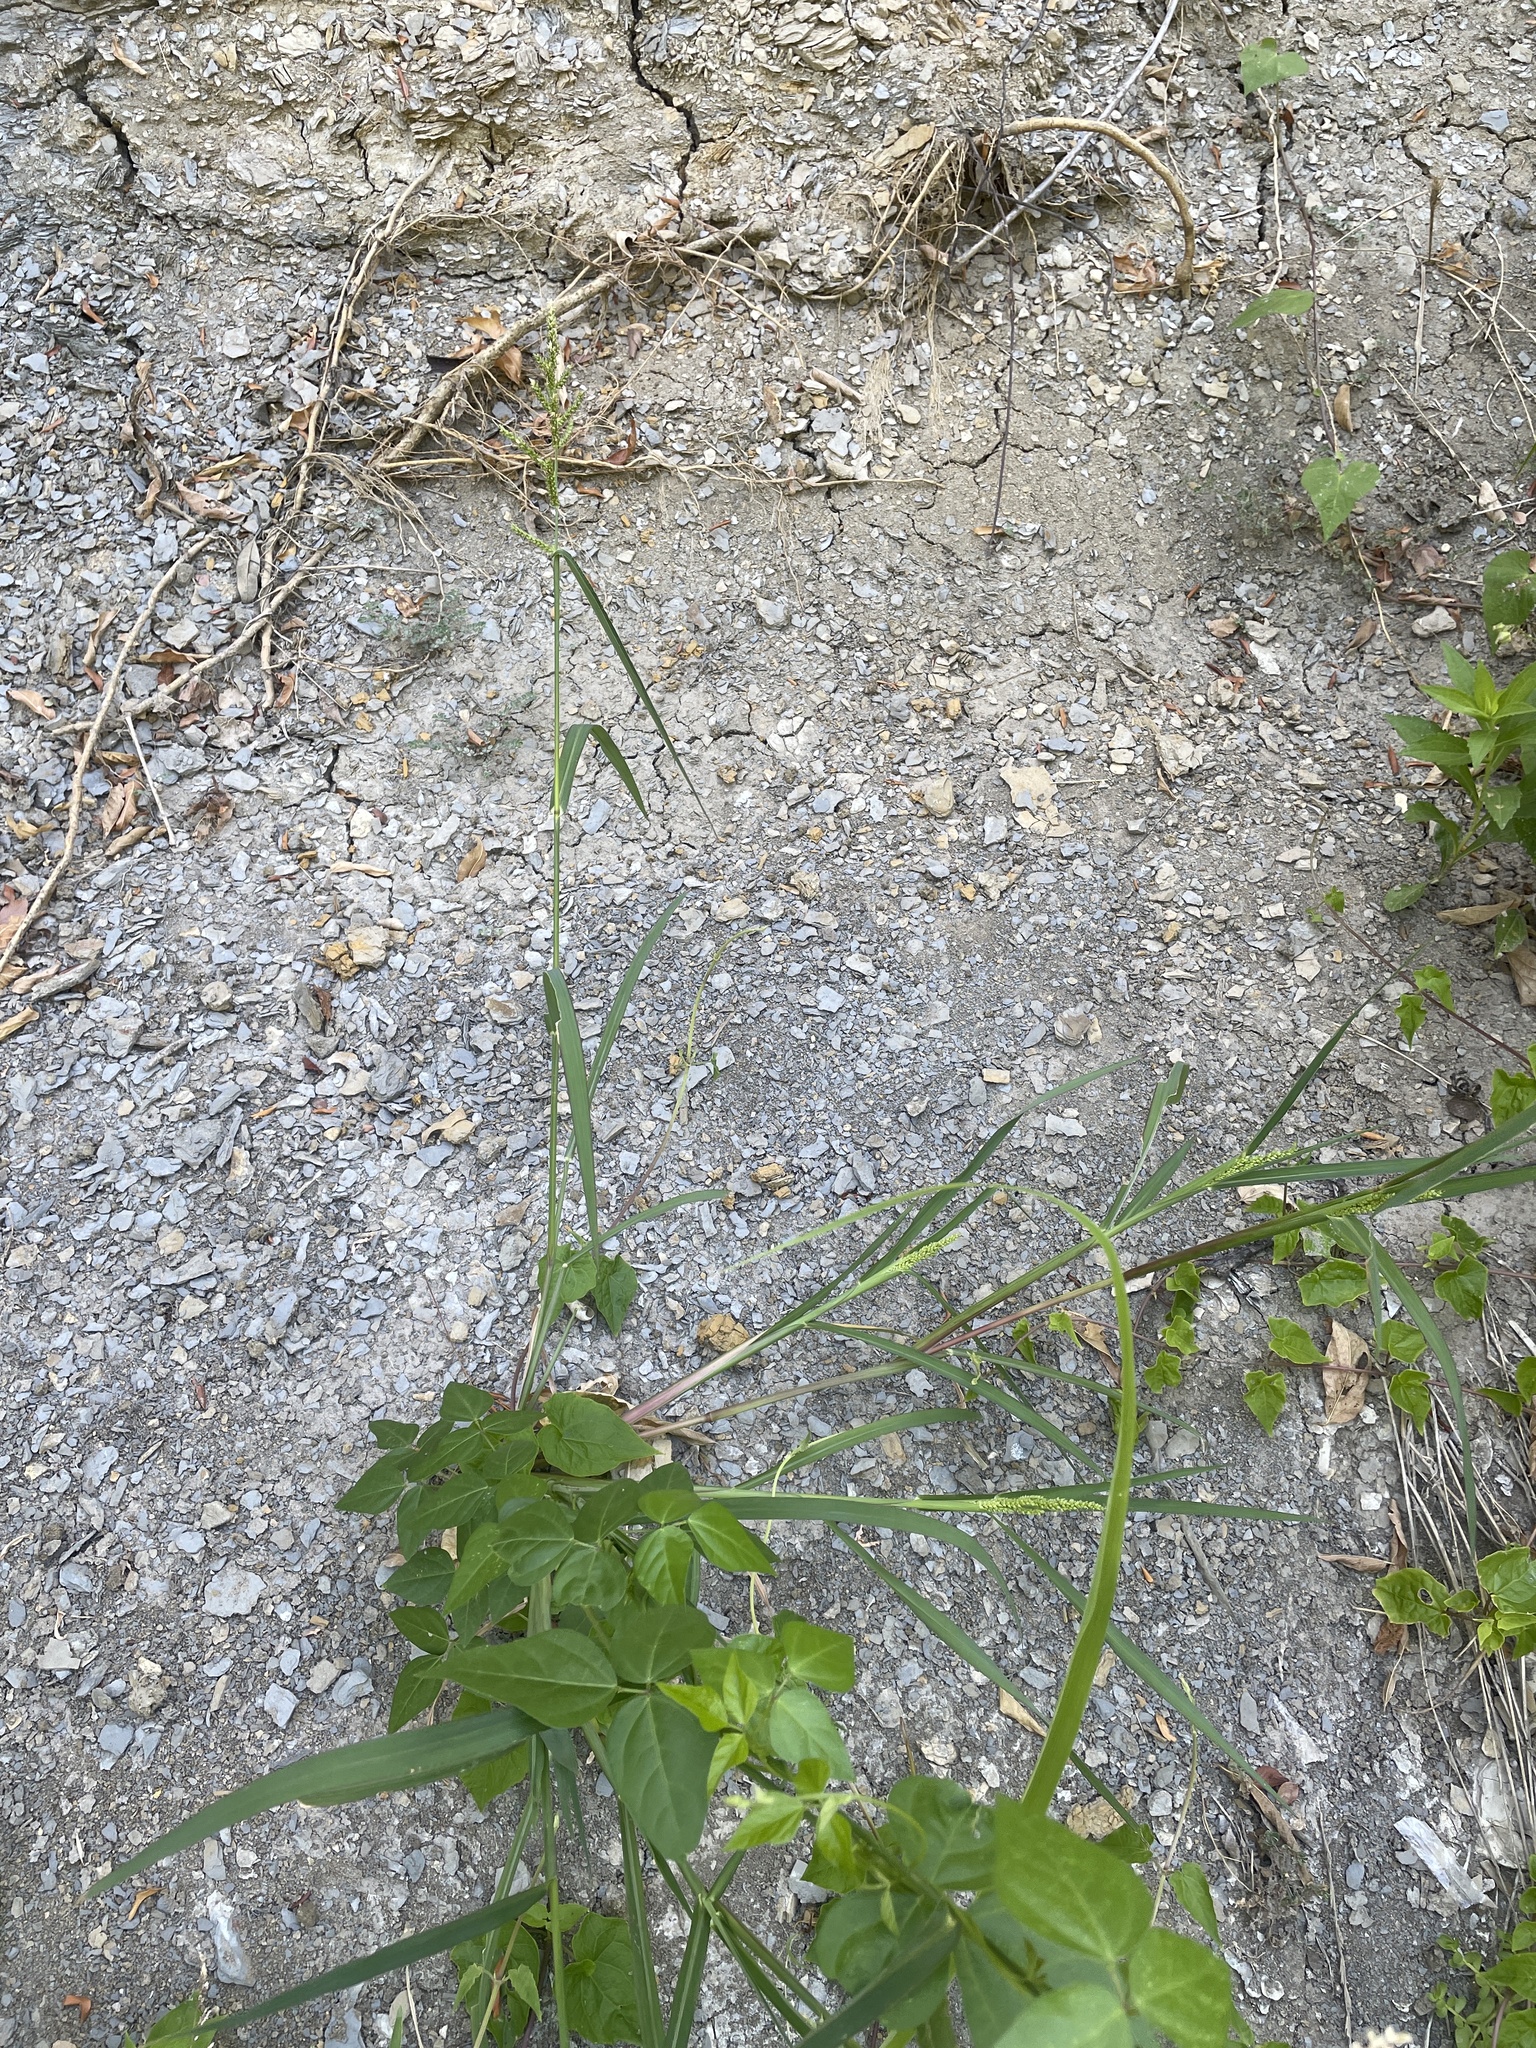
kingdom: Plantae
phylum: Tracheophyta
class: Liliopsida
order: Poales
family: Poaceae
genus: Echinochloa
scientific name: Echinochloa crus-galli
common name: Cockspur
